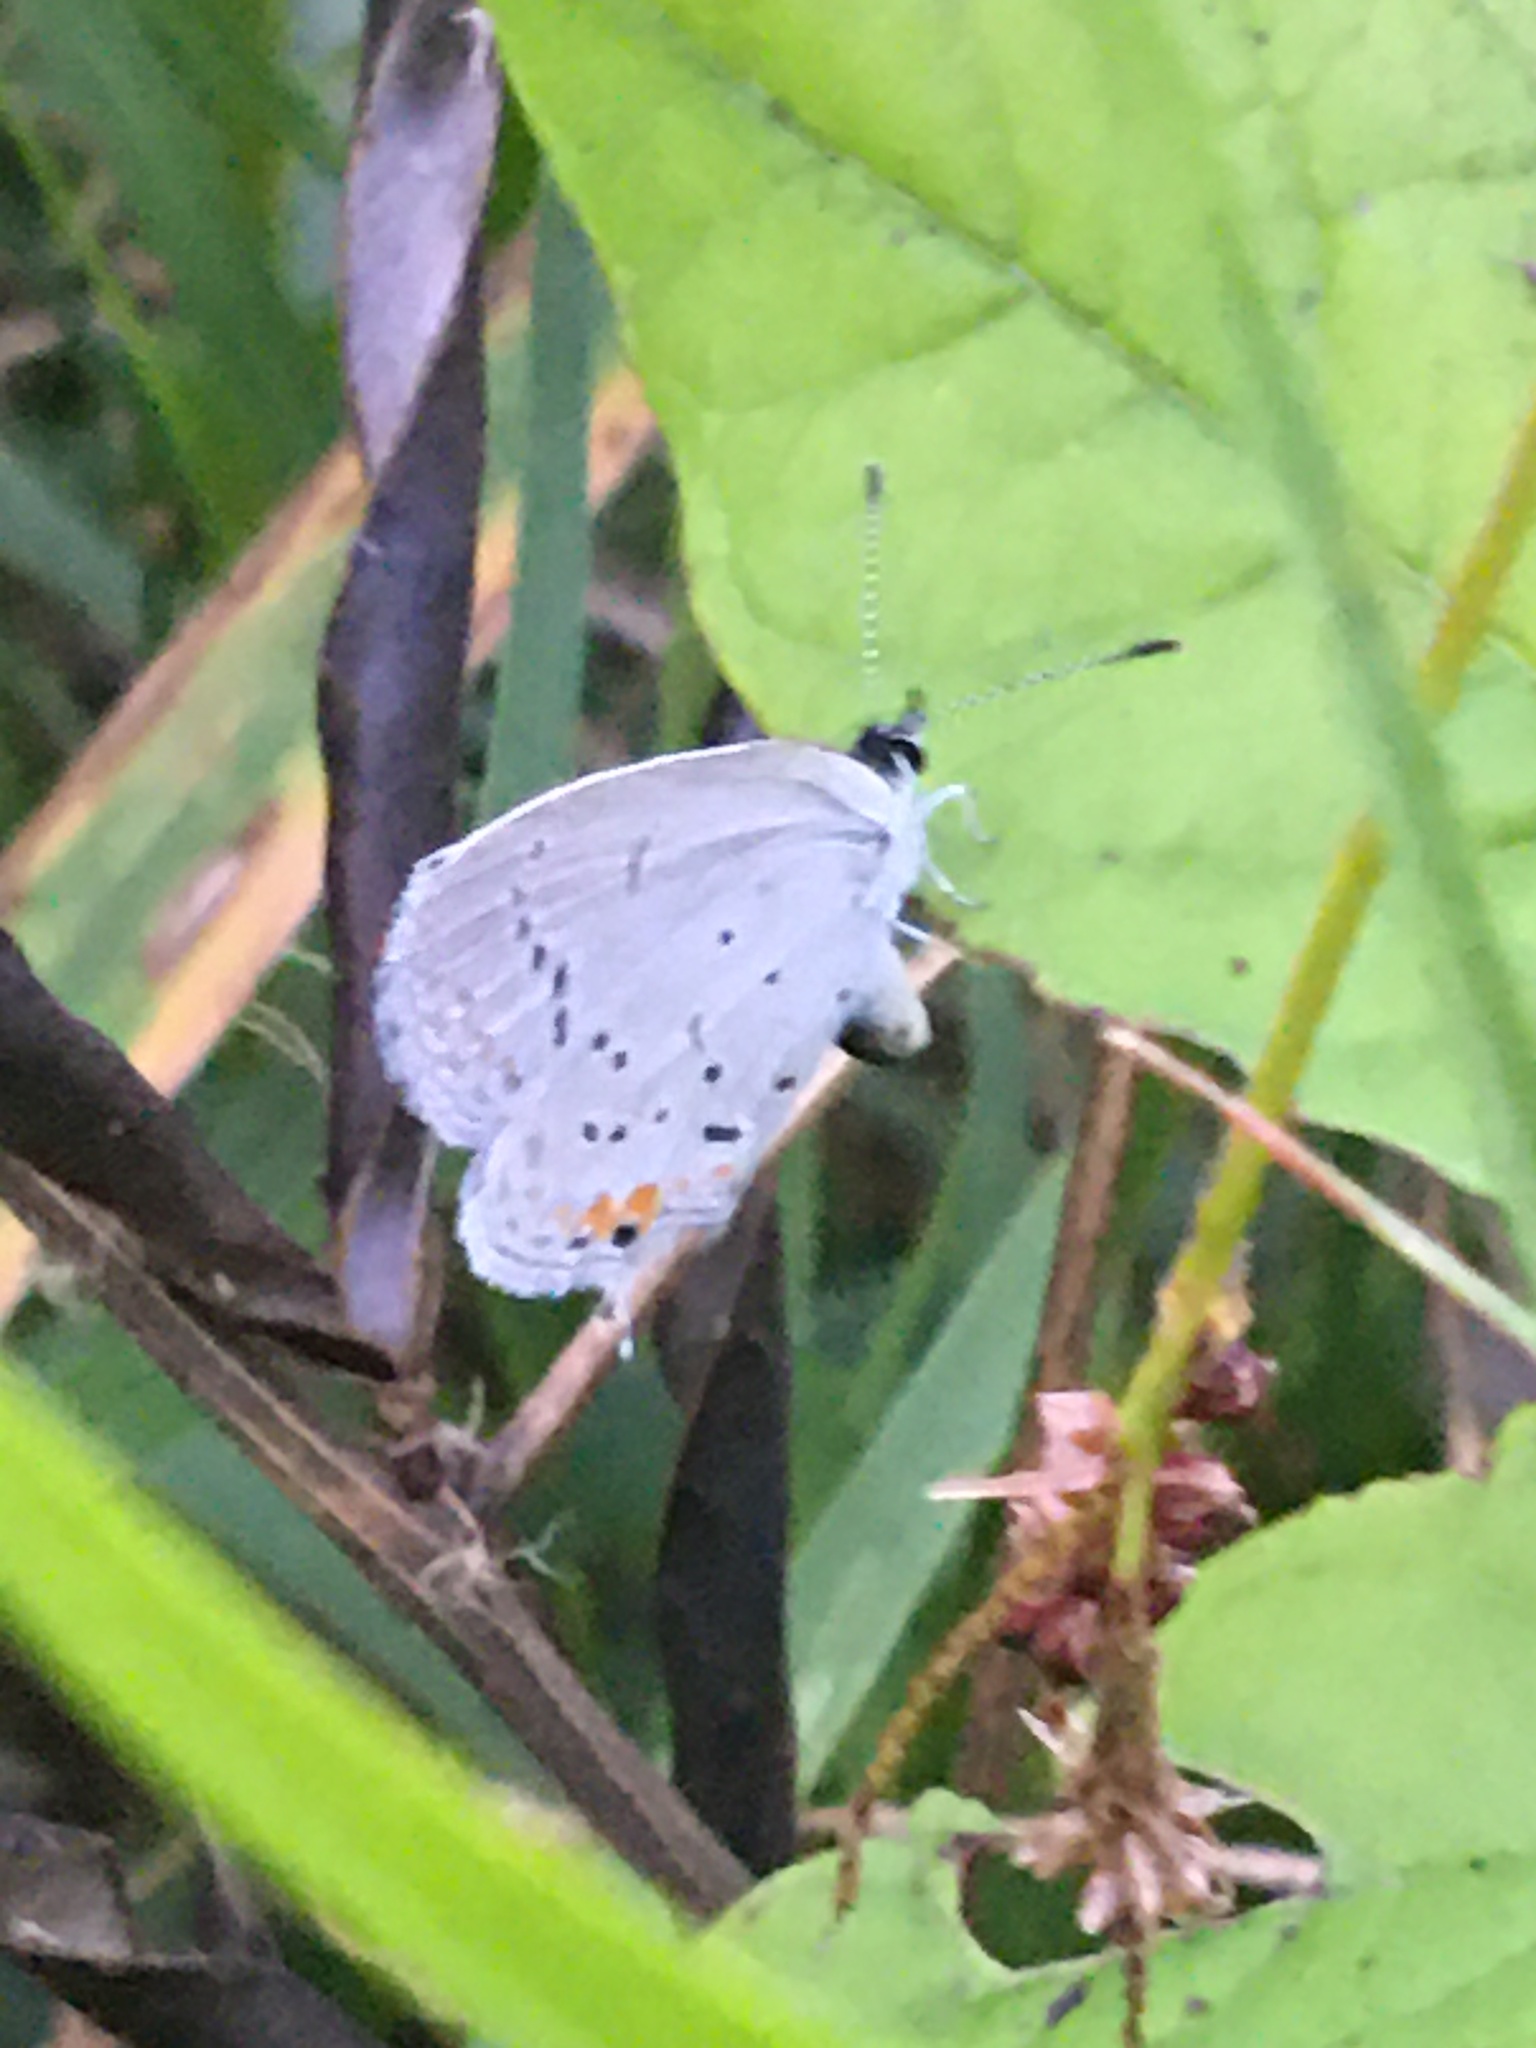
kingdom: Animalia
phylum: Arthropoda
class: Insecta
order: Lepidoptera
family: Lycaenidae
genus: Elkalyce
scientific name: Elkalyce comyntas
